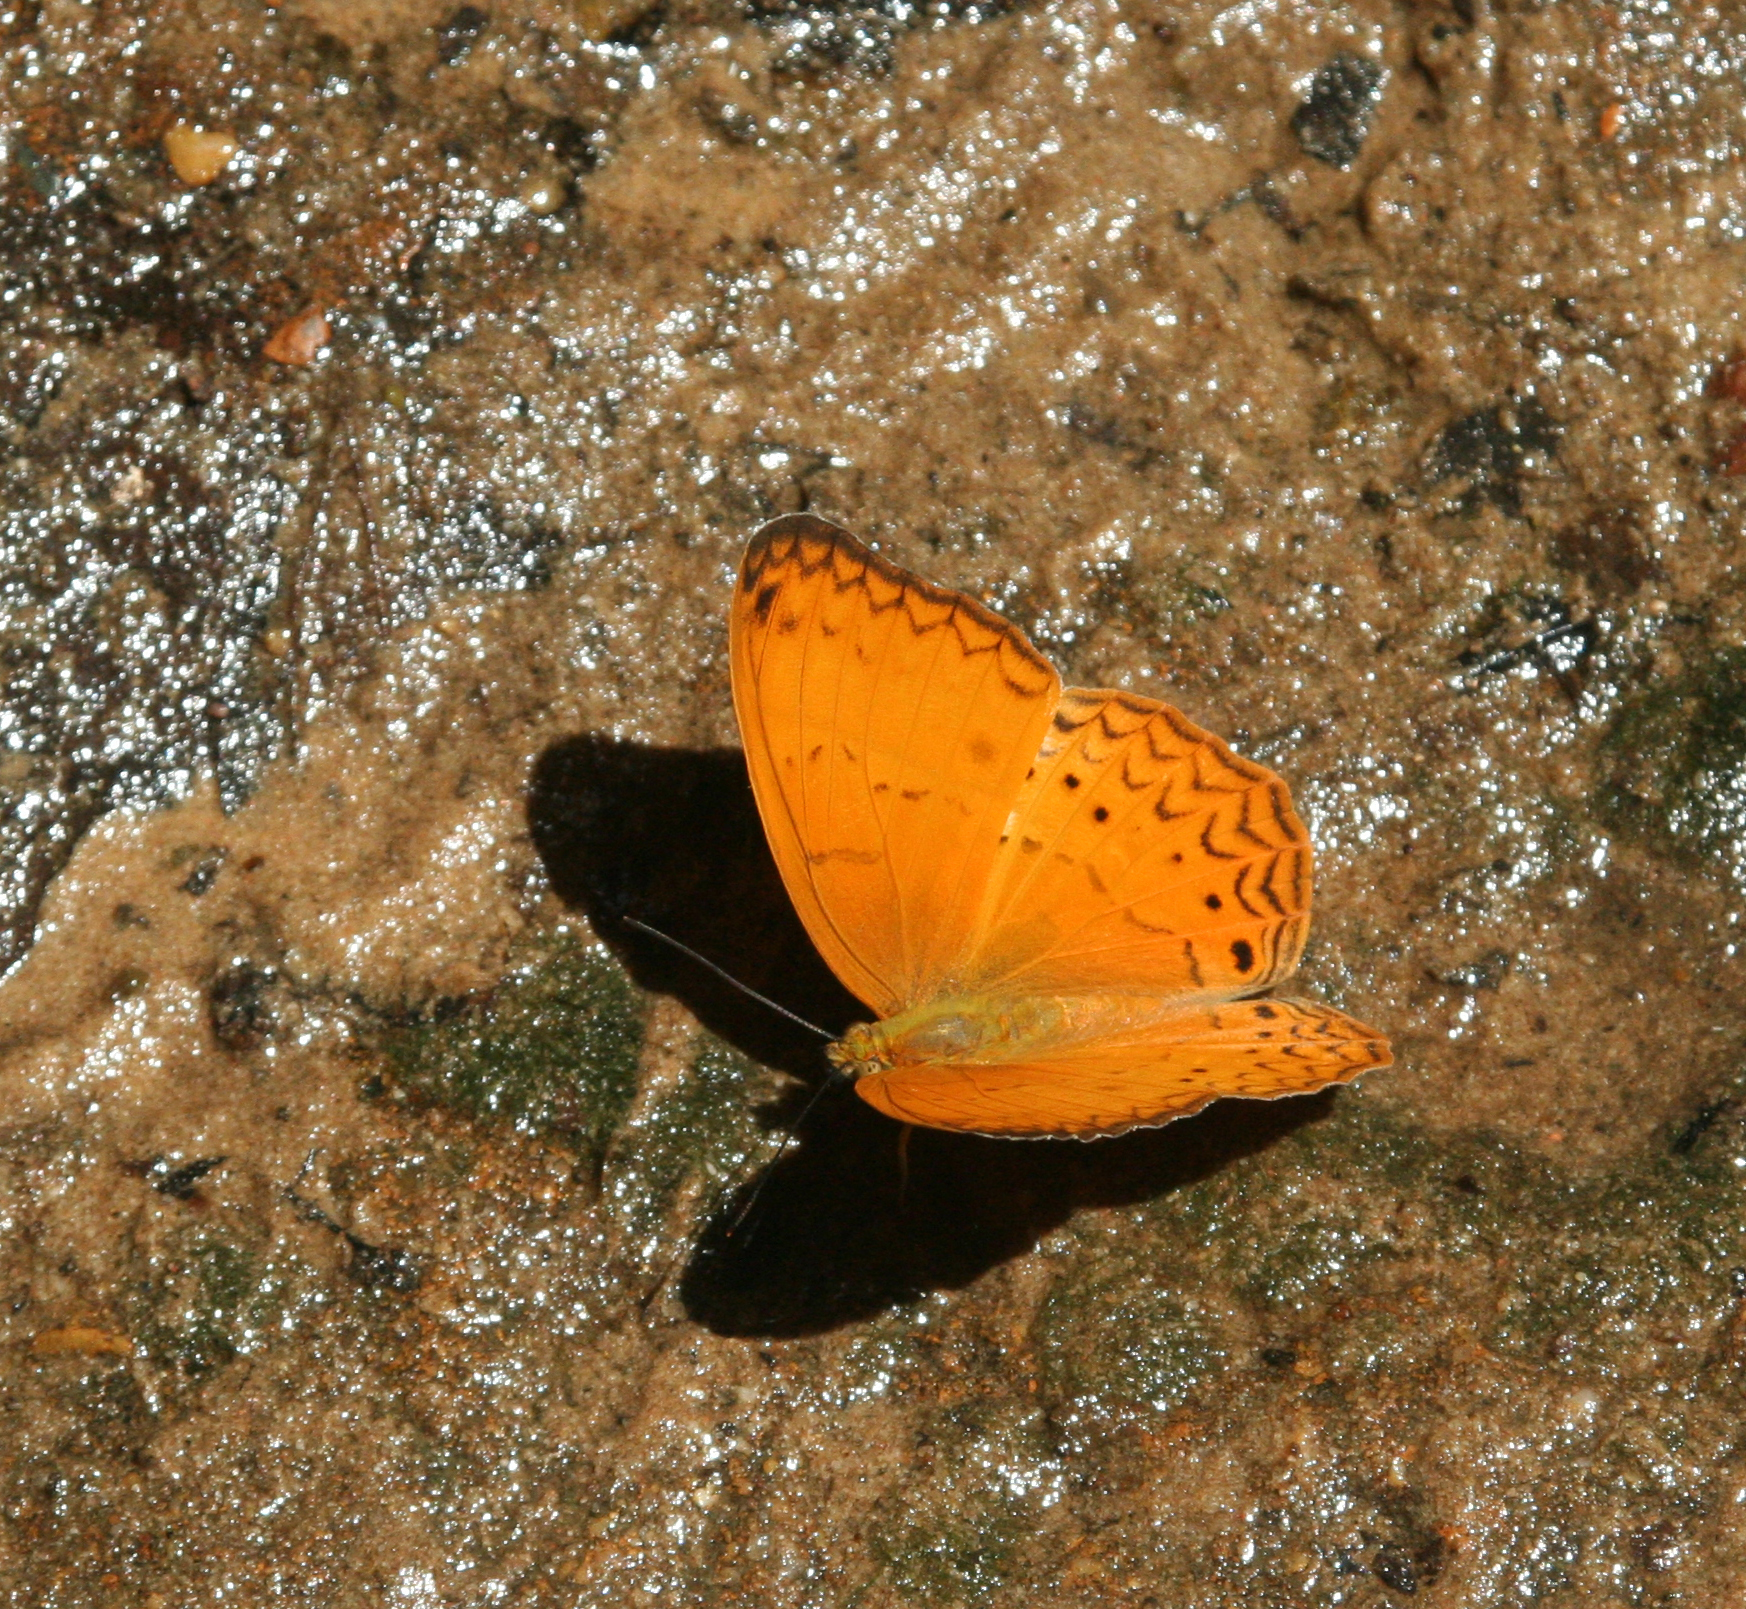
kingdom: Animalia
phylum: Arthropoda
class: Insecta
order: Lepidoptera
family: Nymphalidae
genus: Cirrochroa
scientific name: Cirrochroa tyche
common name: Common yeoman
